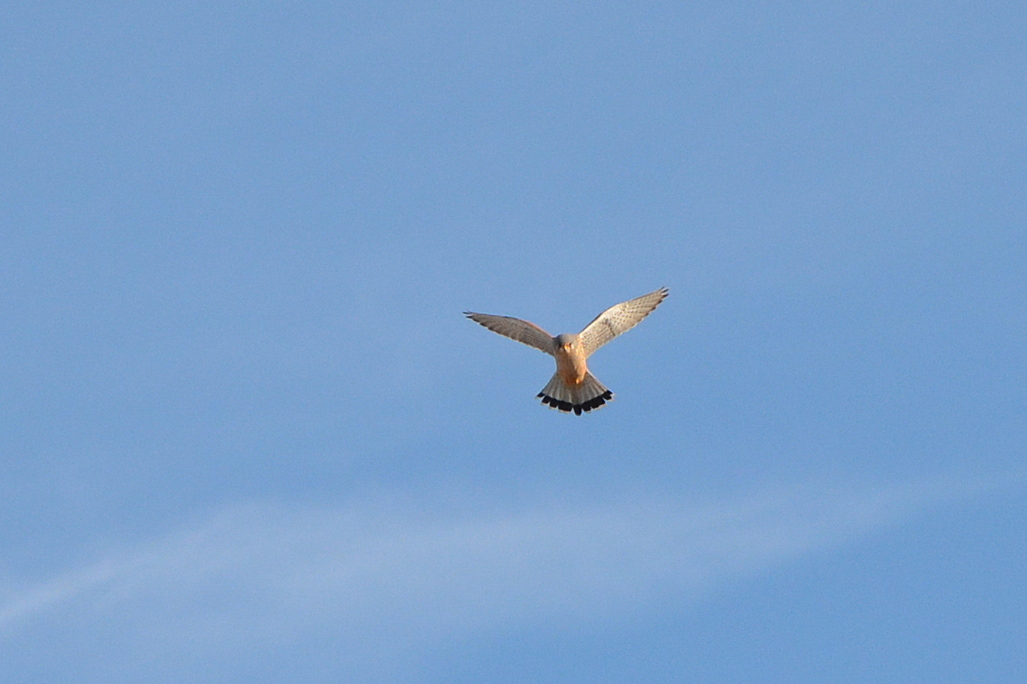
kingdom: Animalia
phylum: Chordata
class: Aves
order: Falconiformes
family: Falconidae
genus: Falco
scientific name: Falco tinnunculus
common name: Common kestrel
